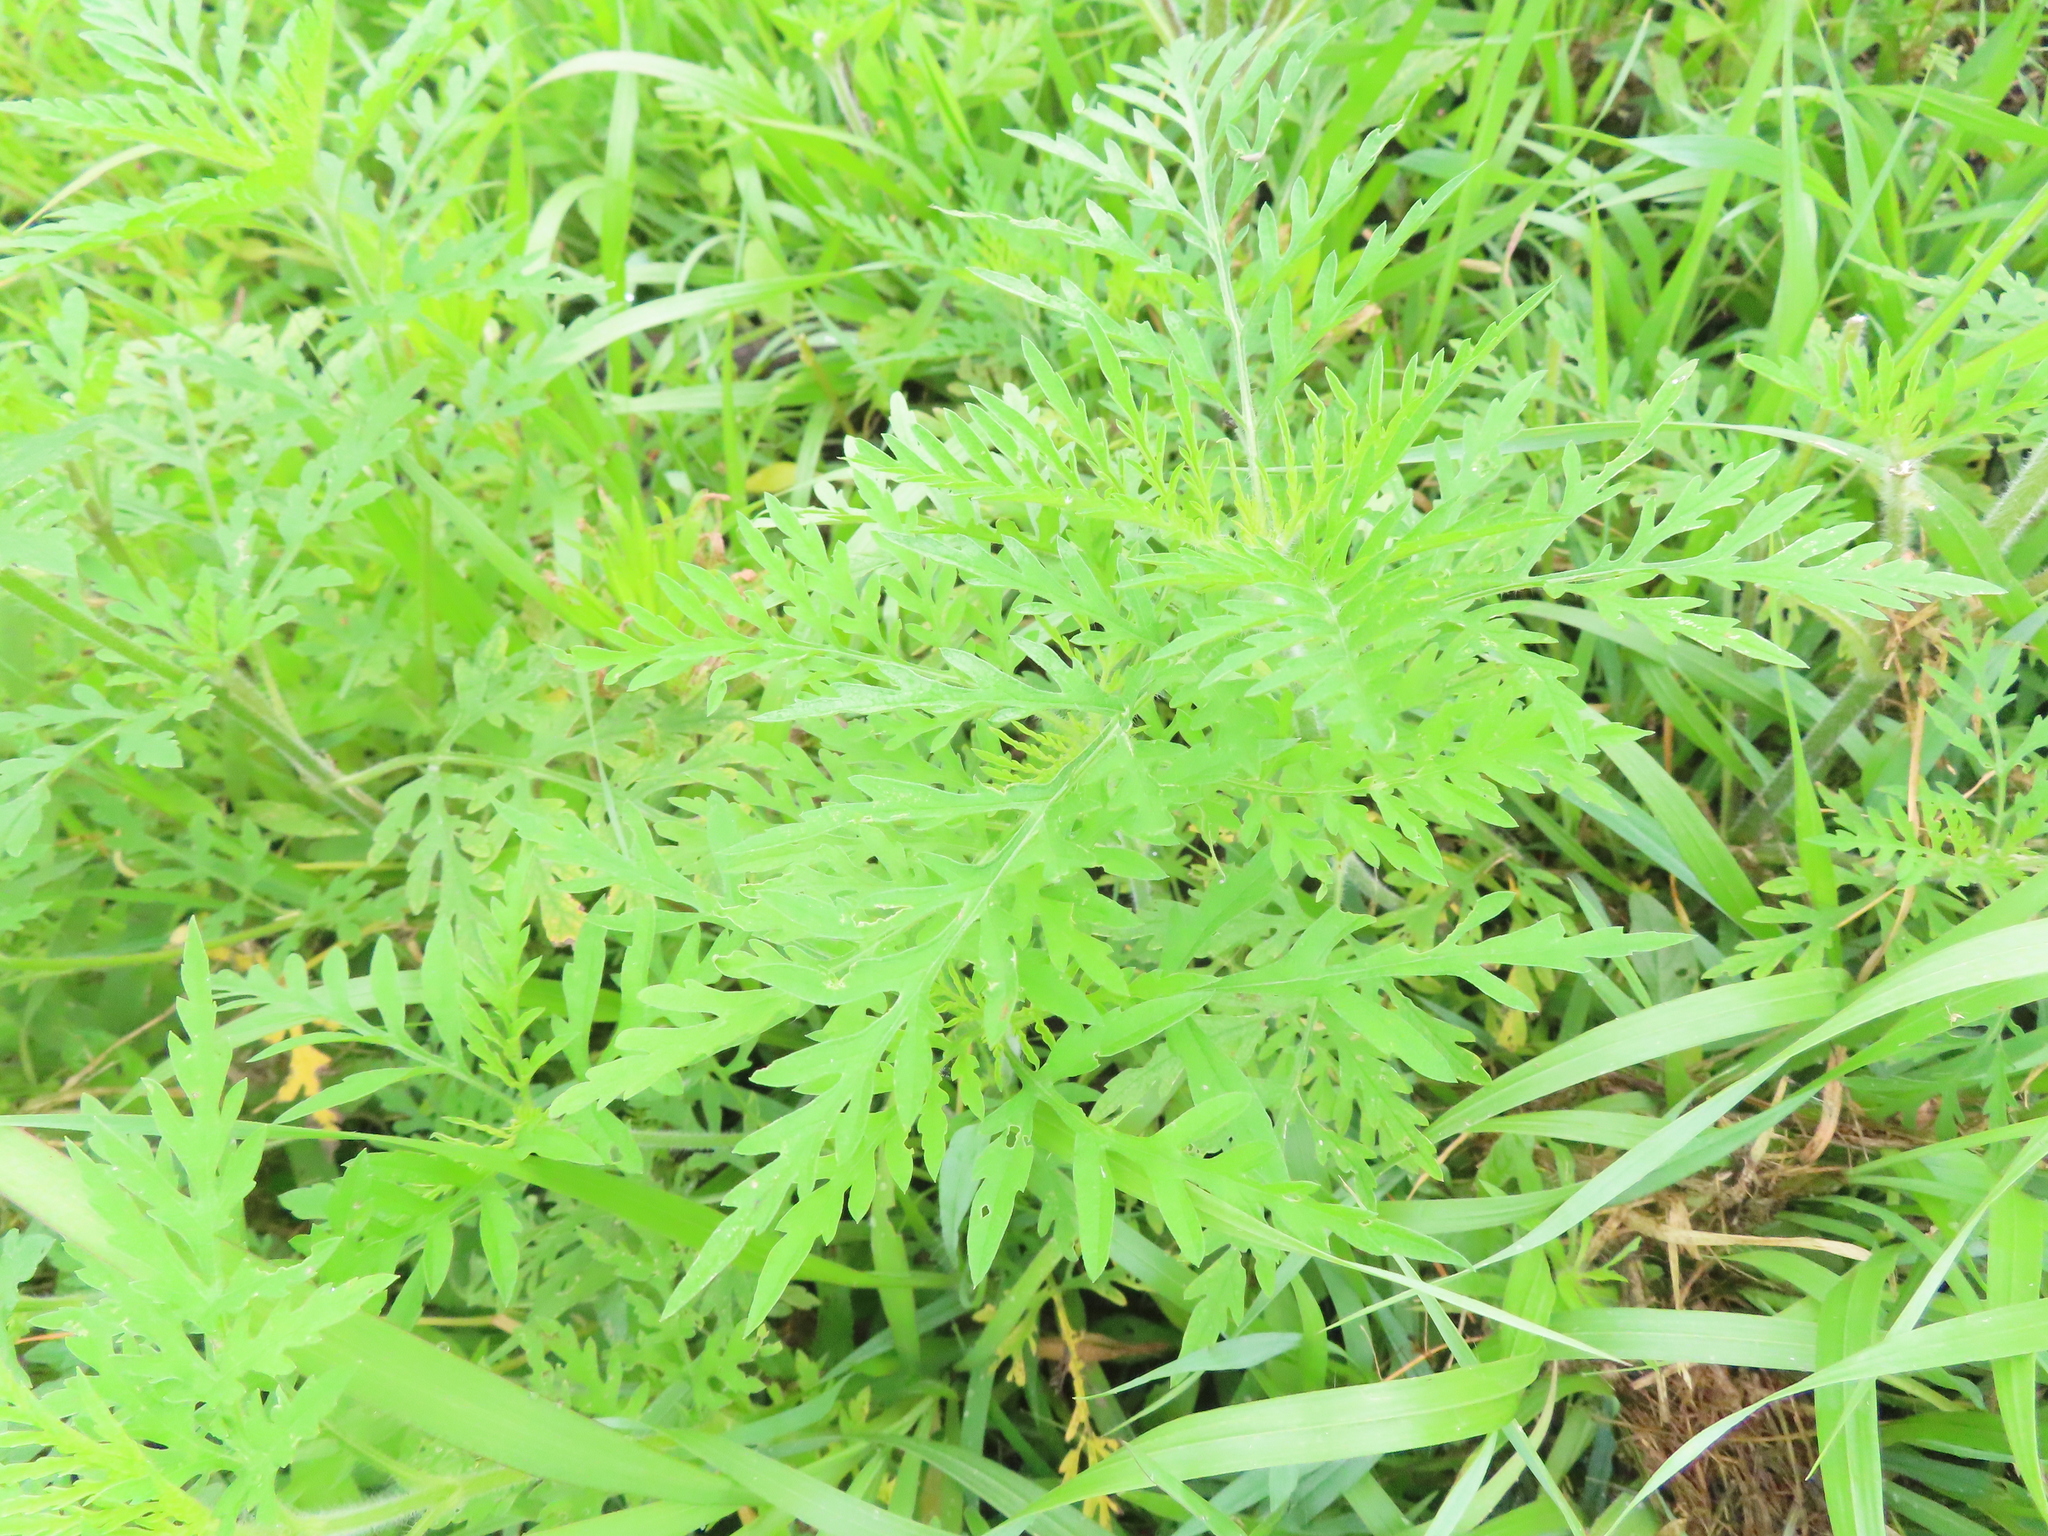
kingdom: Plantae
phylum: Tracheophyta
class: Magnoliopsida
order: Asterales
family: Asteraceae
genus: Ambrosia
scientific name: Ambrosia artemisiifolia
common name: Annual ragweed
